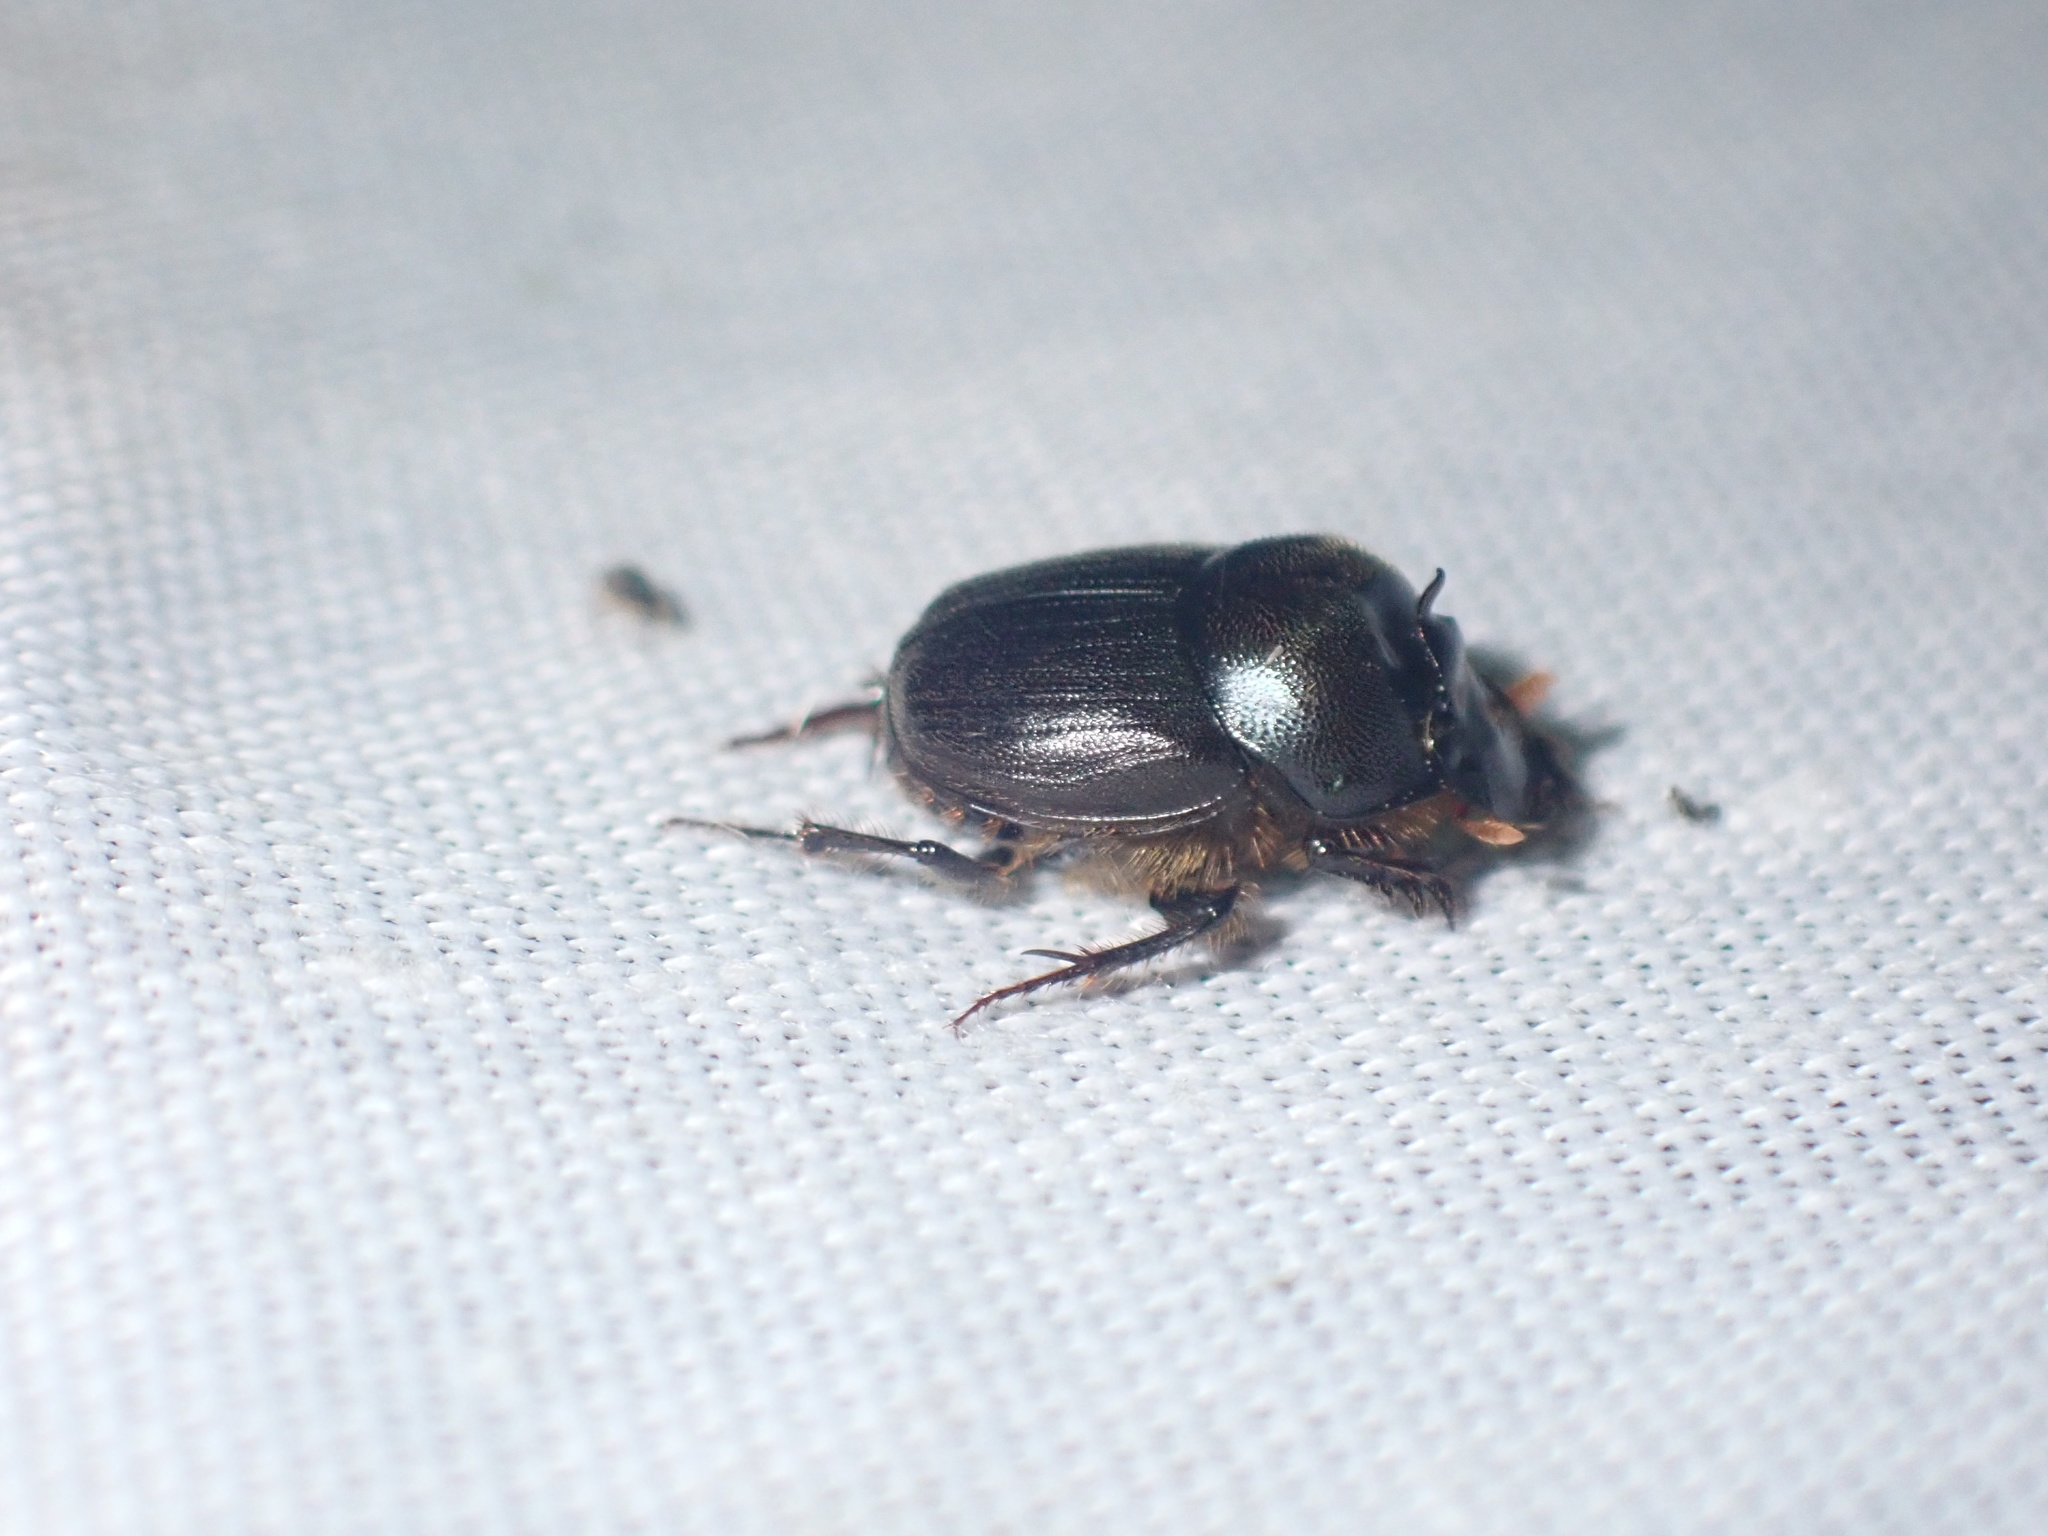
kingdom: Animalia
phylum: Arthropoda
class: Insecta
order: Coleoptera
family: Scarabaeidae
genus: Onthophagus
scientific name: Onthophagus deterrens
